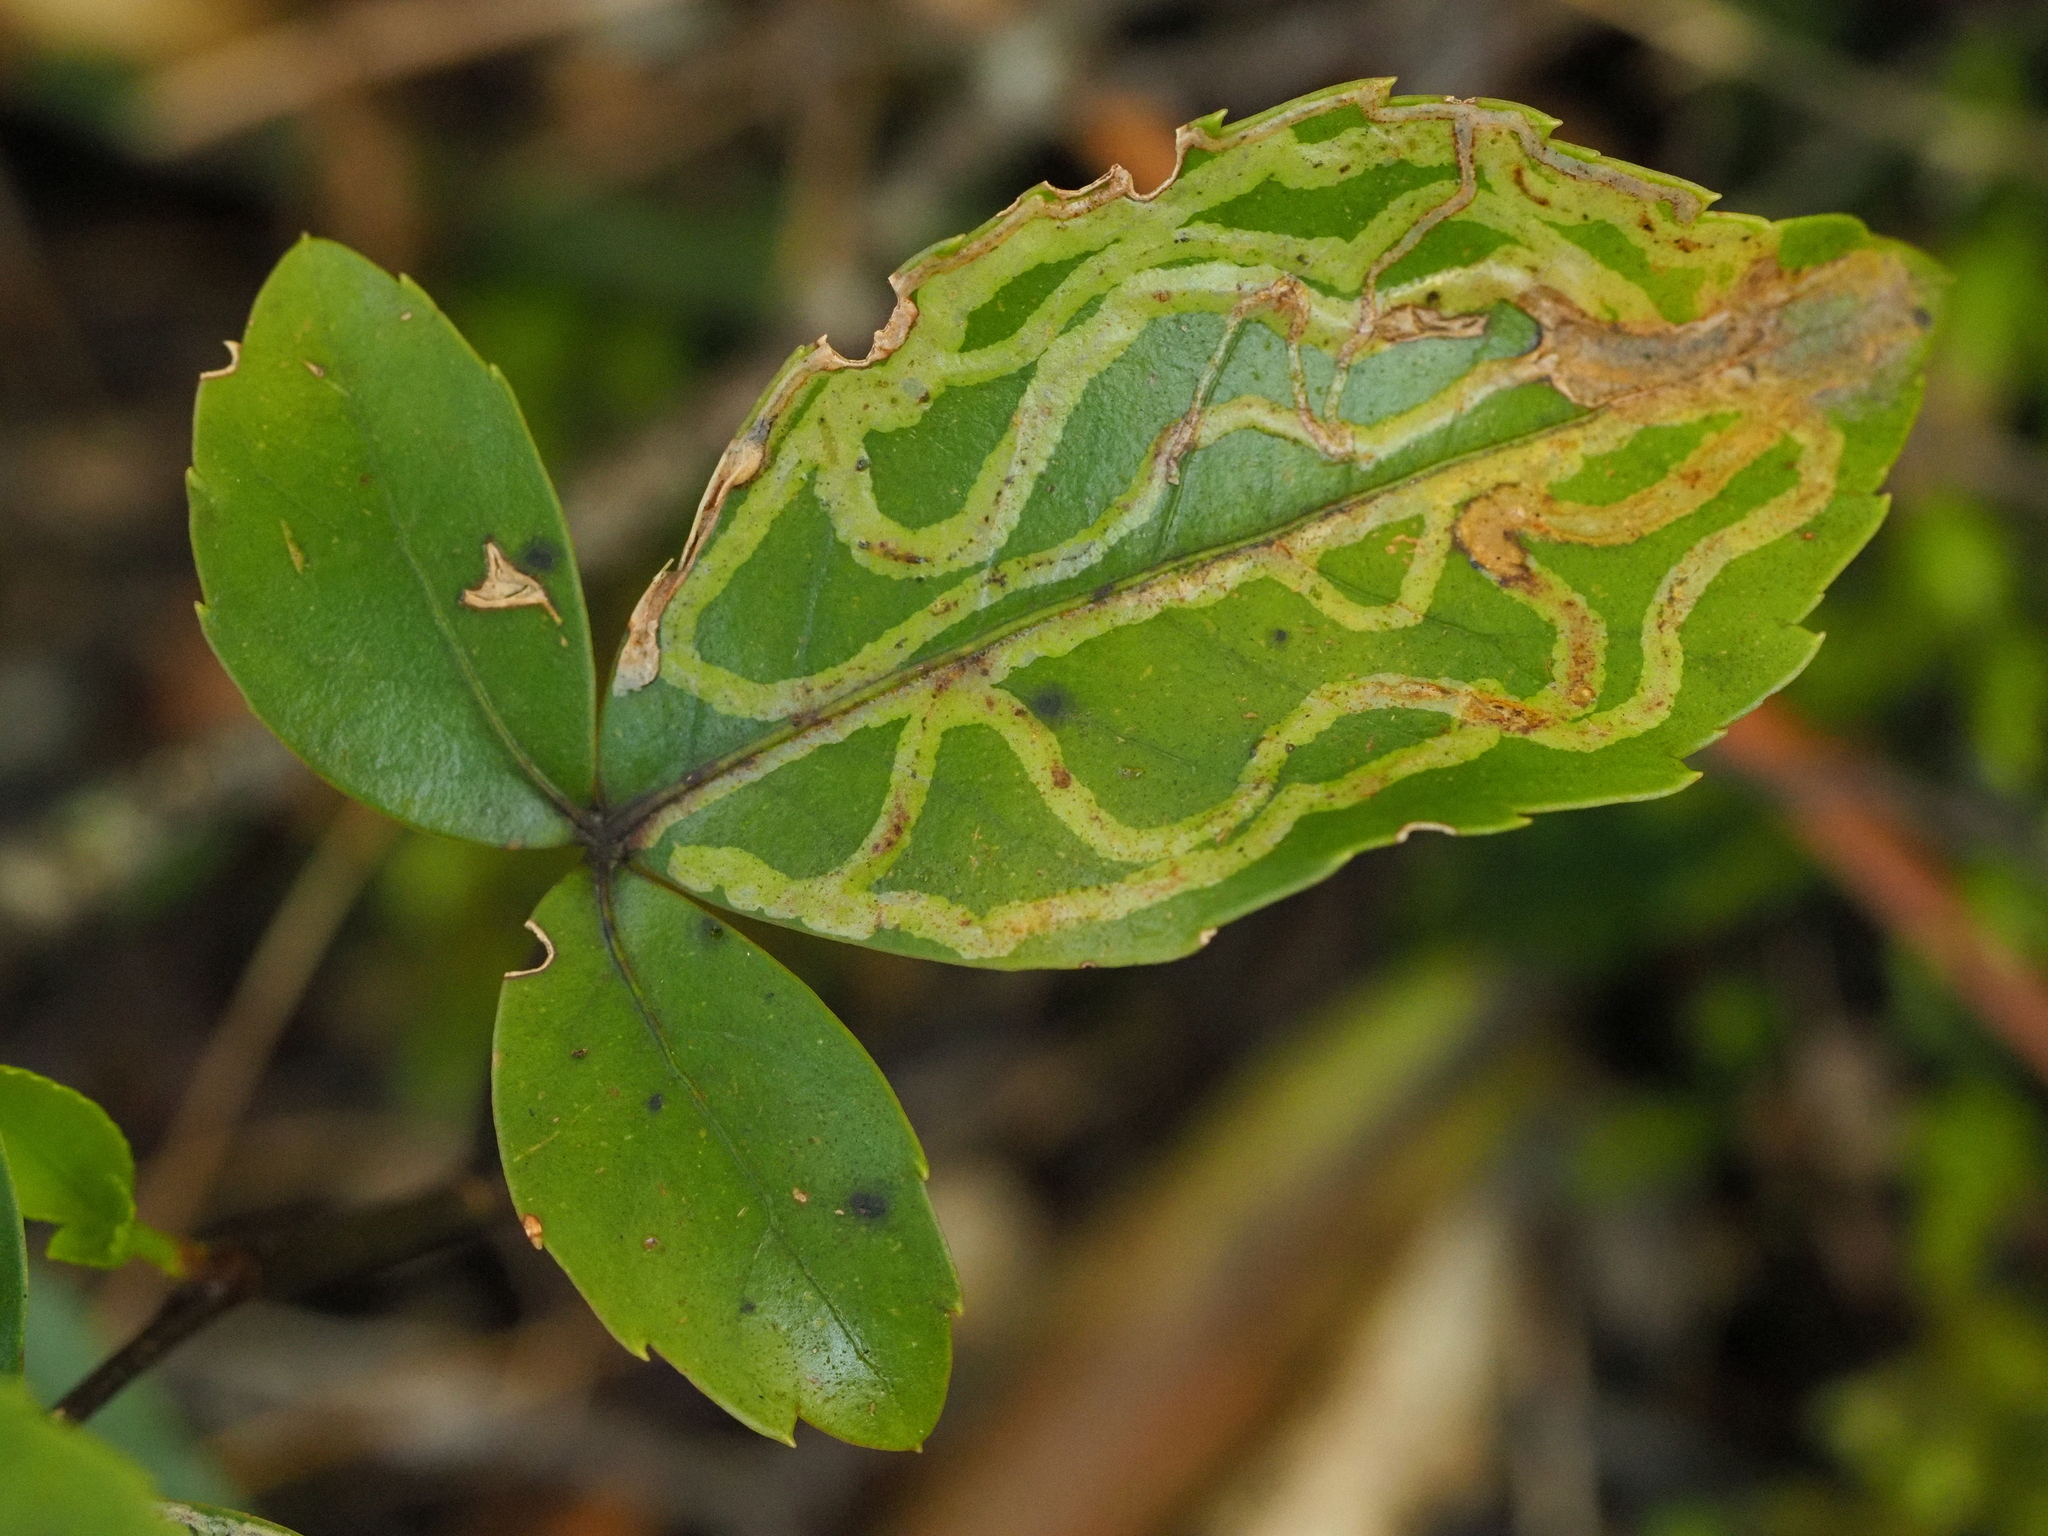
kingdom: Animalia
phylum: Arthropoda
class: Insecta
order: Lepidoptera
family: Gracillariidae
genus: Eumetriochroa
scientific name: Eumetriochroa panacifinens
